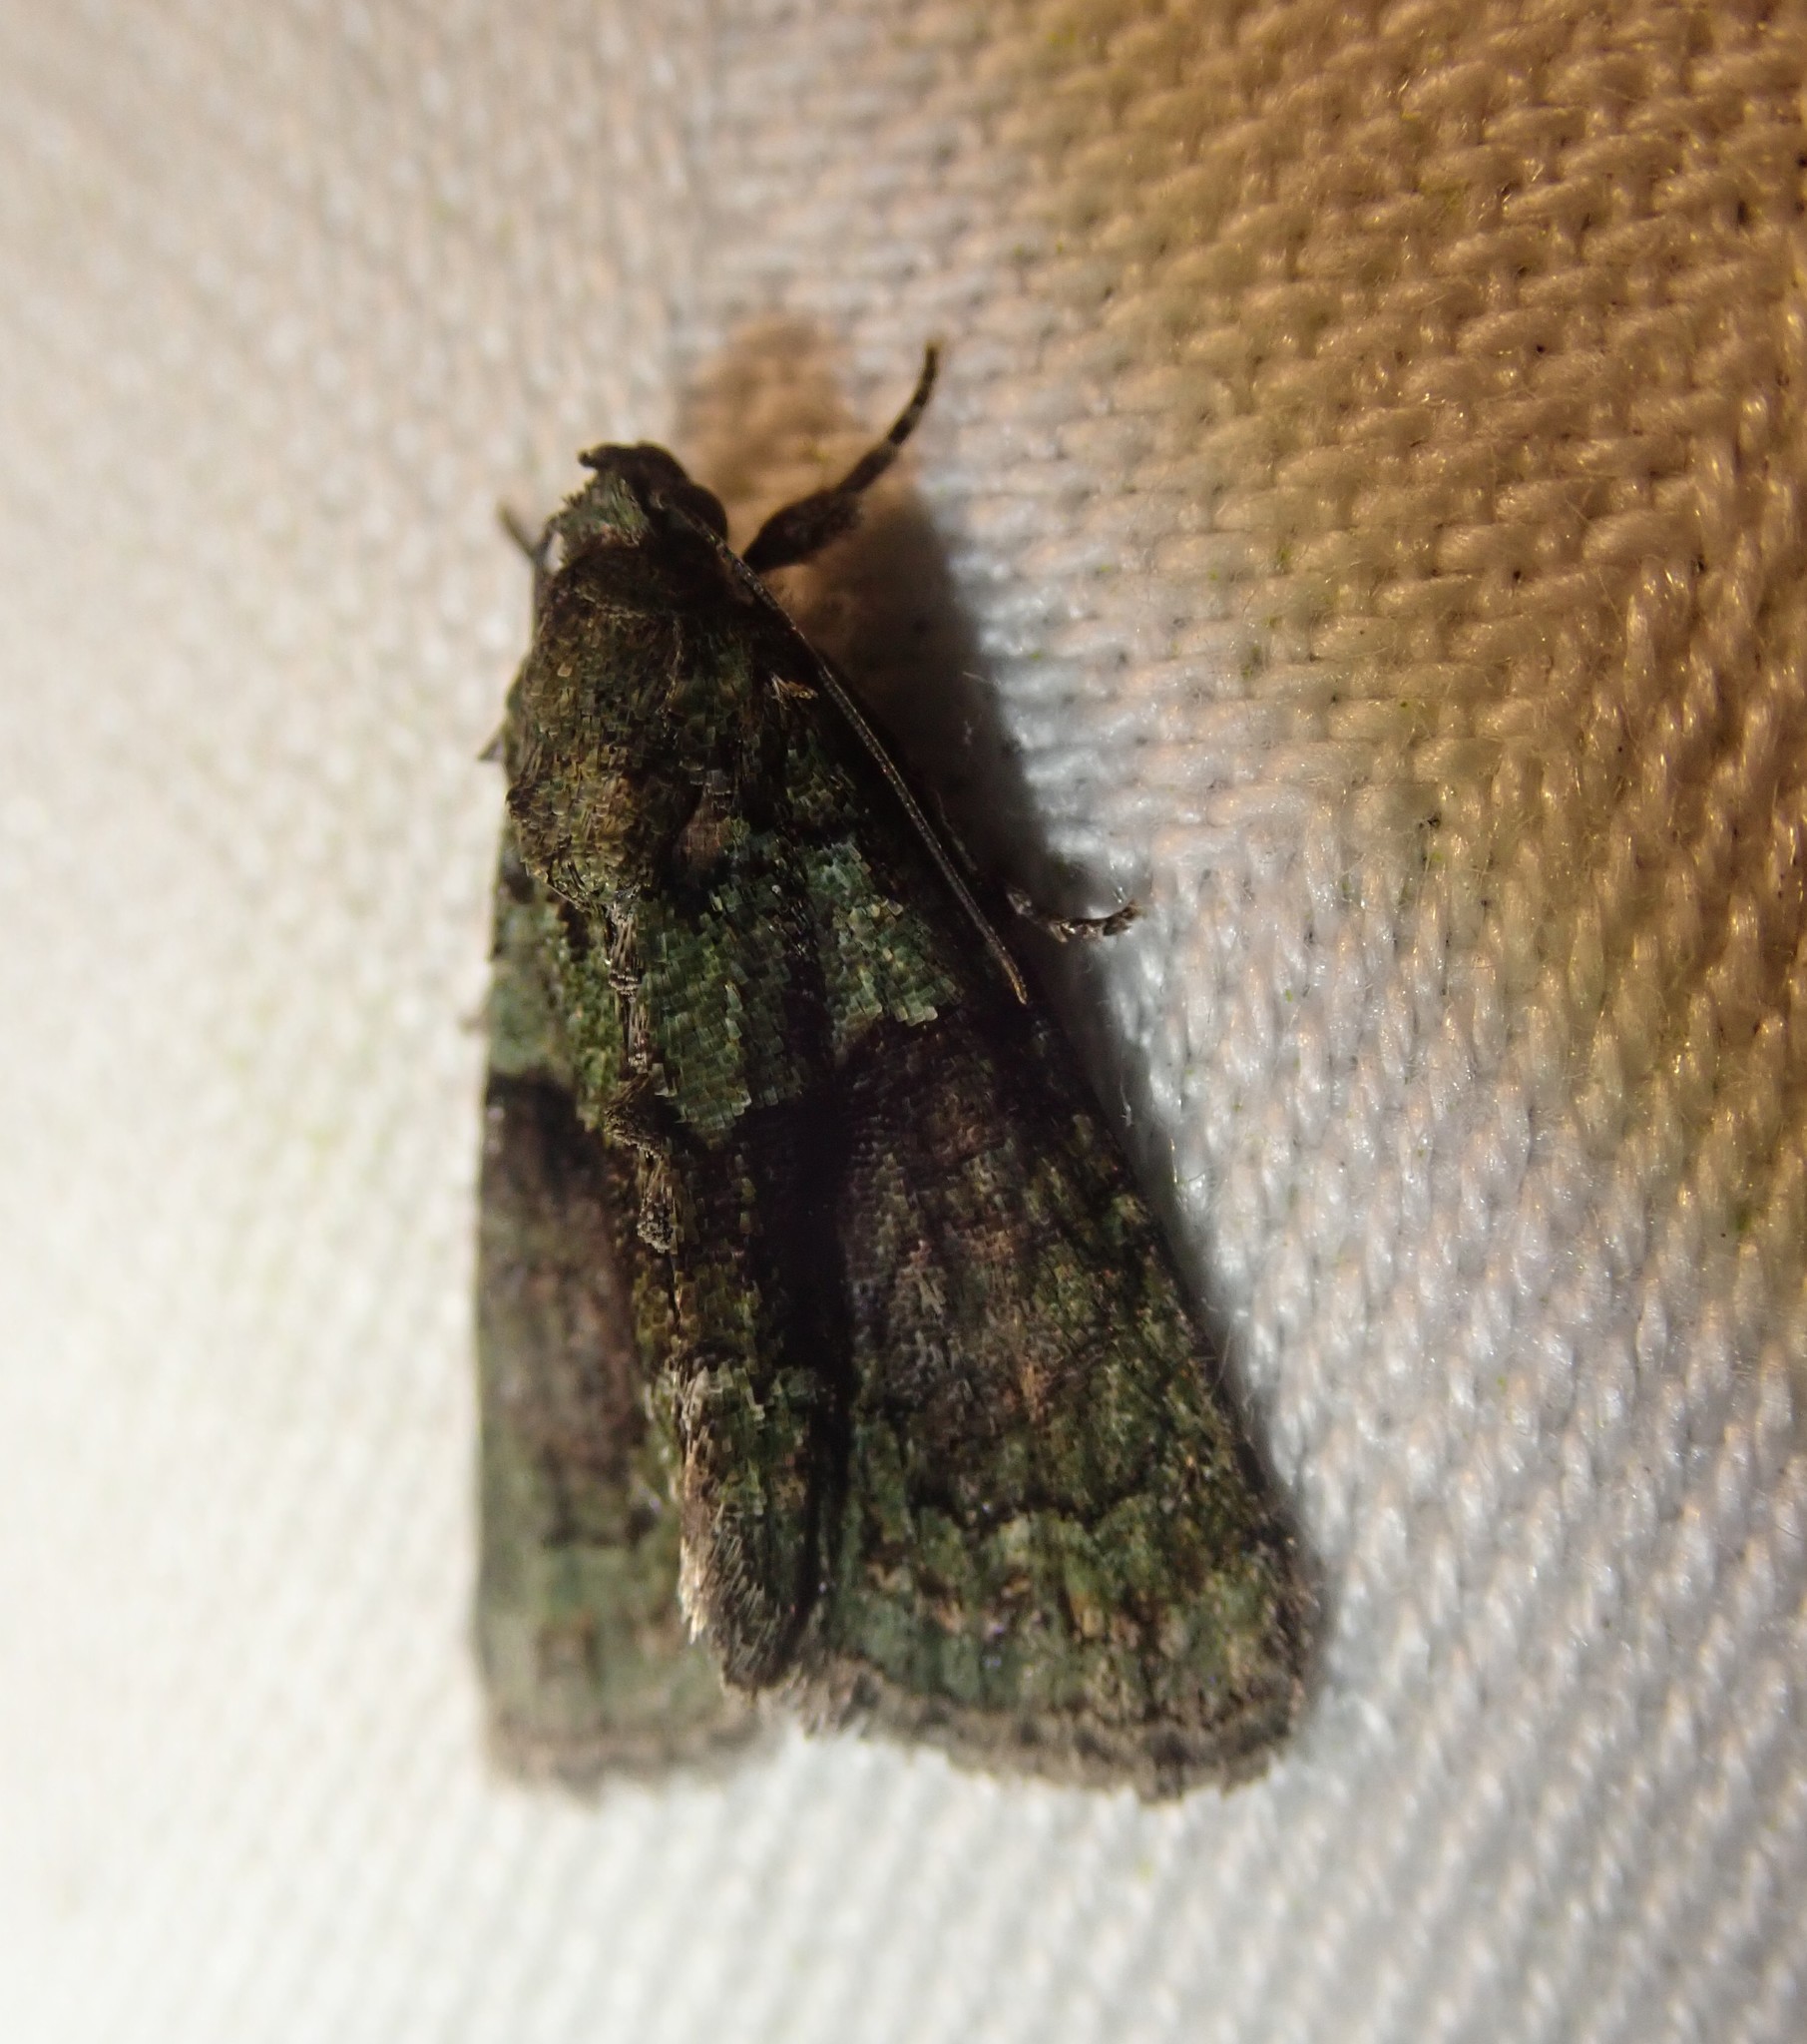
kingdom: Animalia
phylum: Arthropoda
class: Insecta
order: Lepidoptera
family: Noctuidae
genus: Cryphia
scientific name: Cryphia algae
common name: Tree-lichen beauty
